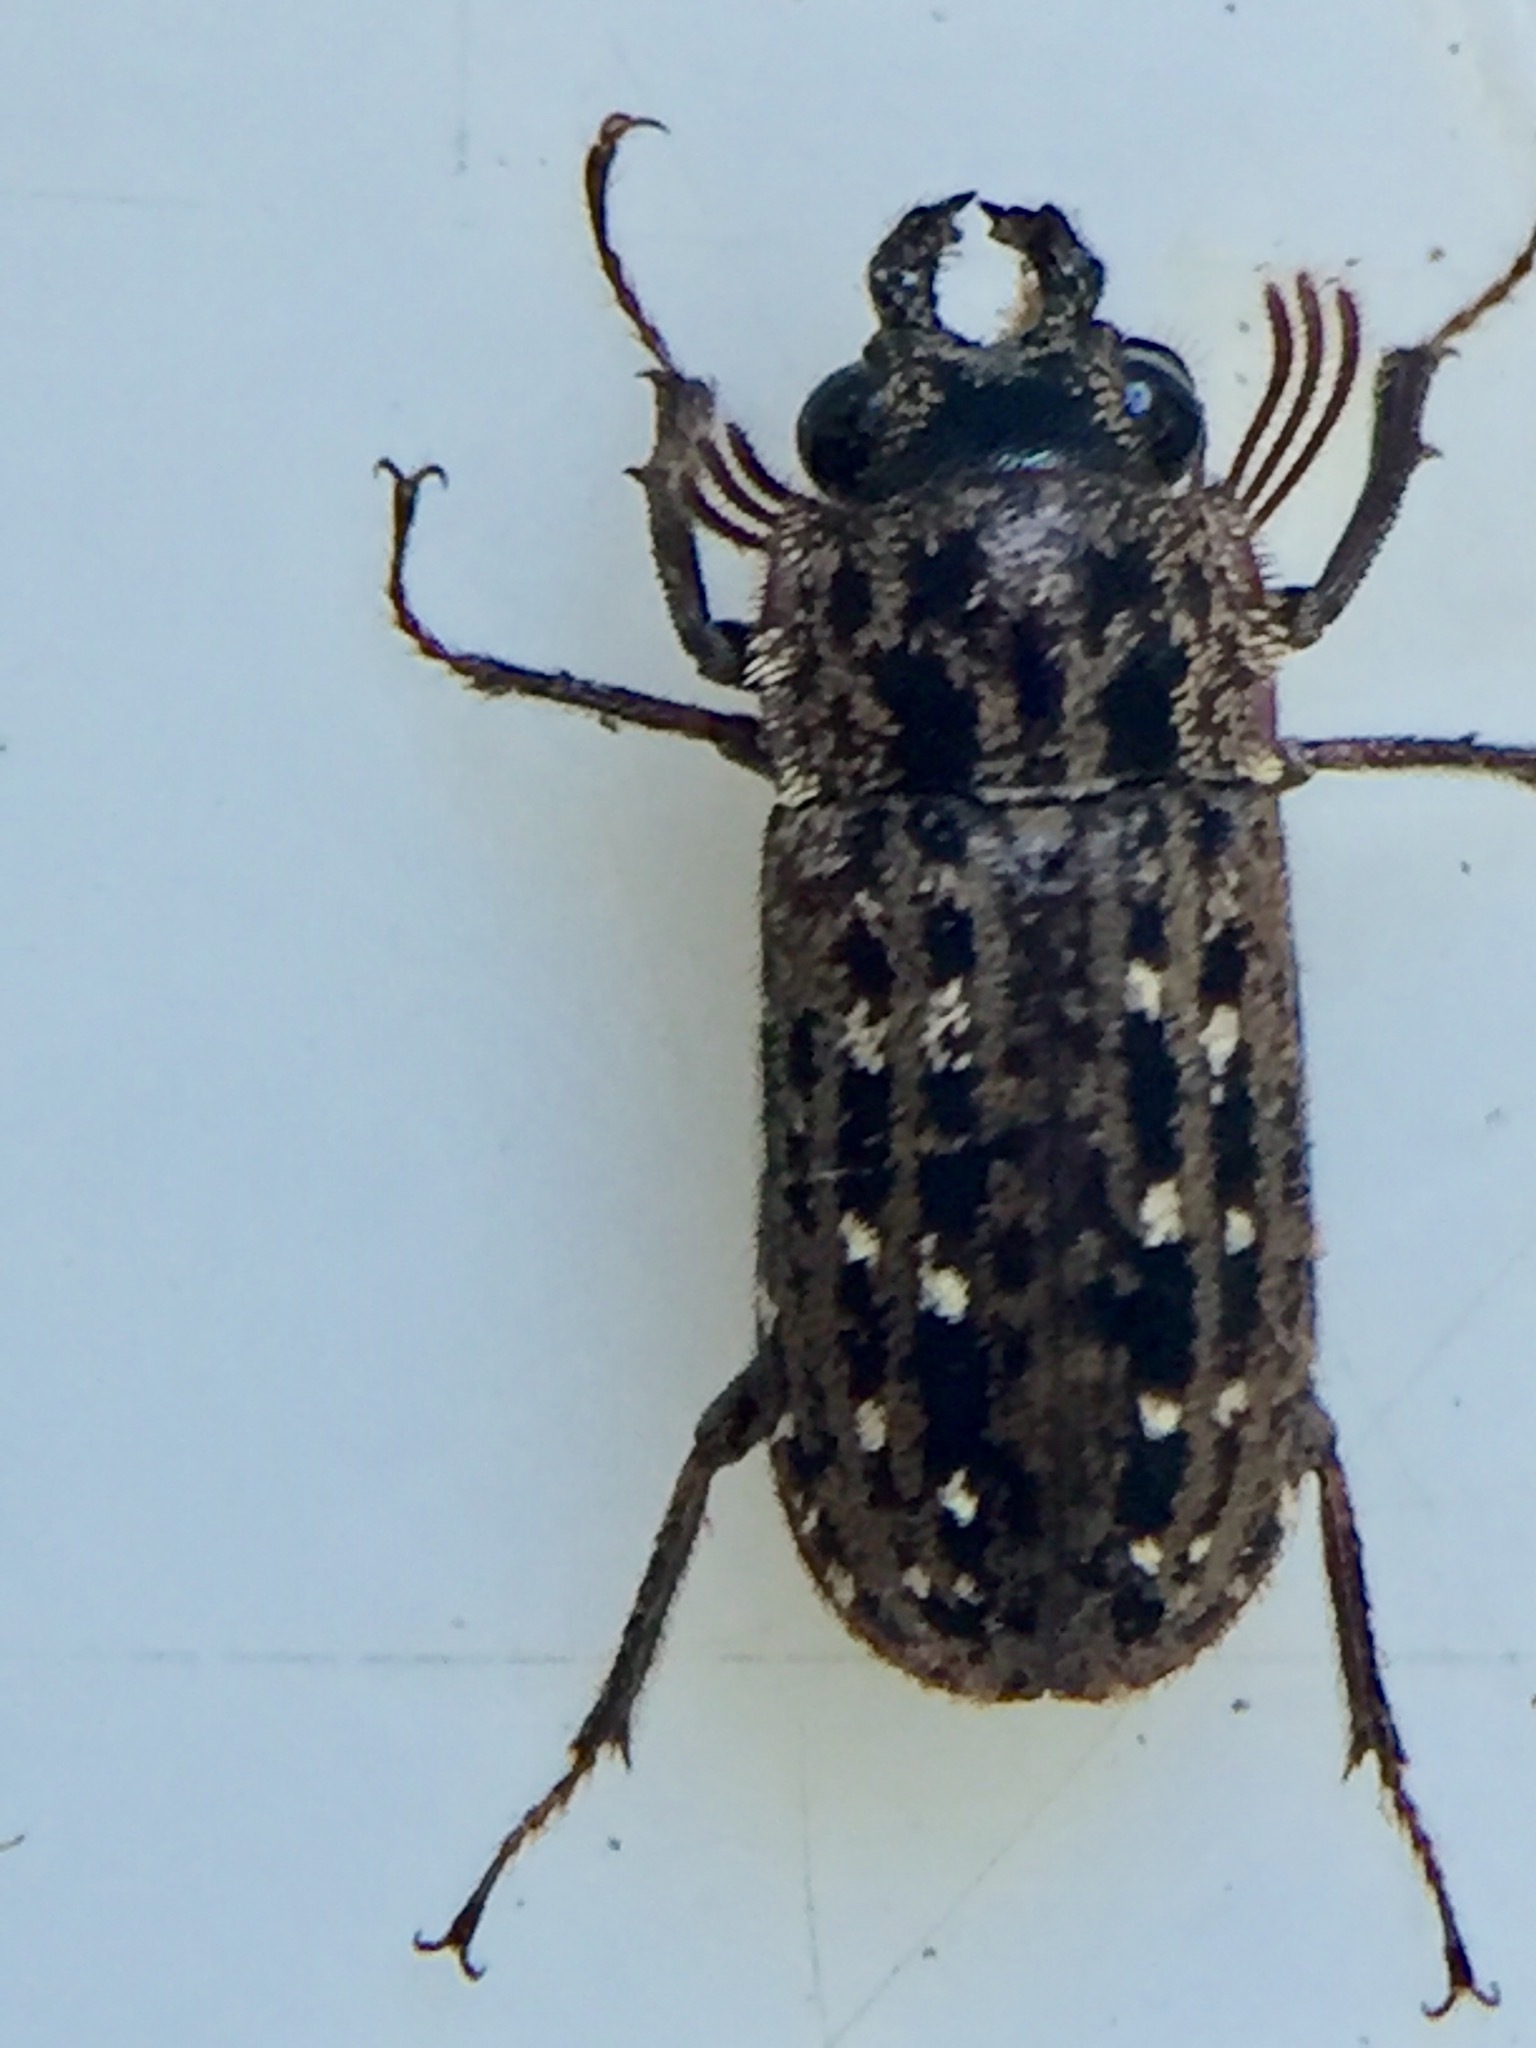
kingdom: Animalia
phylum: Arthropoda
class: Insecta
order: Coleoptera
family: Lucanidae
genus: Mitophyllus
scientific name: Mitophyllus arcuatus
